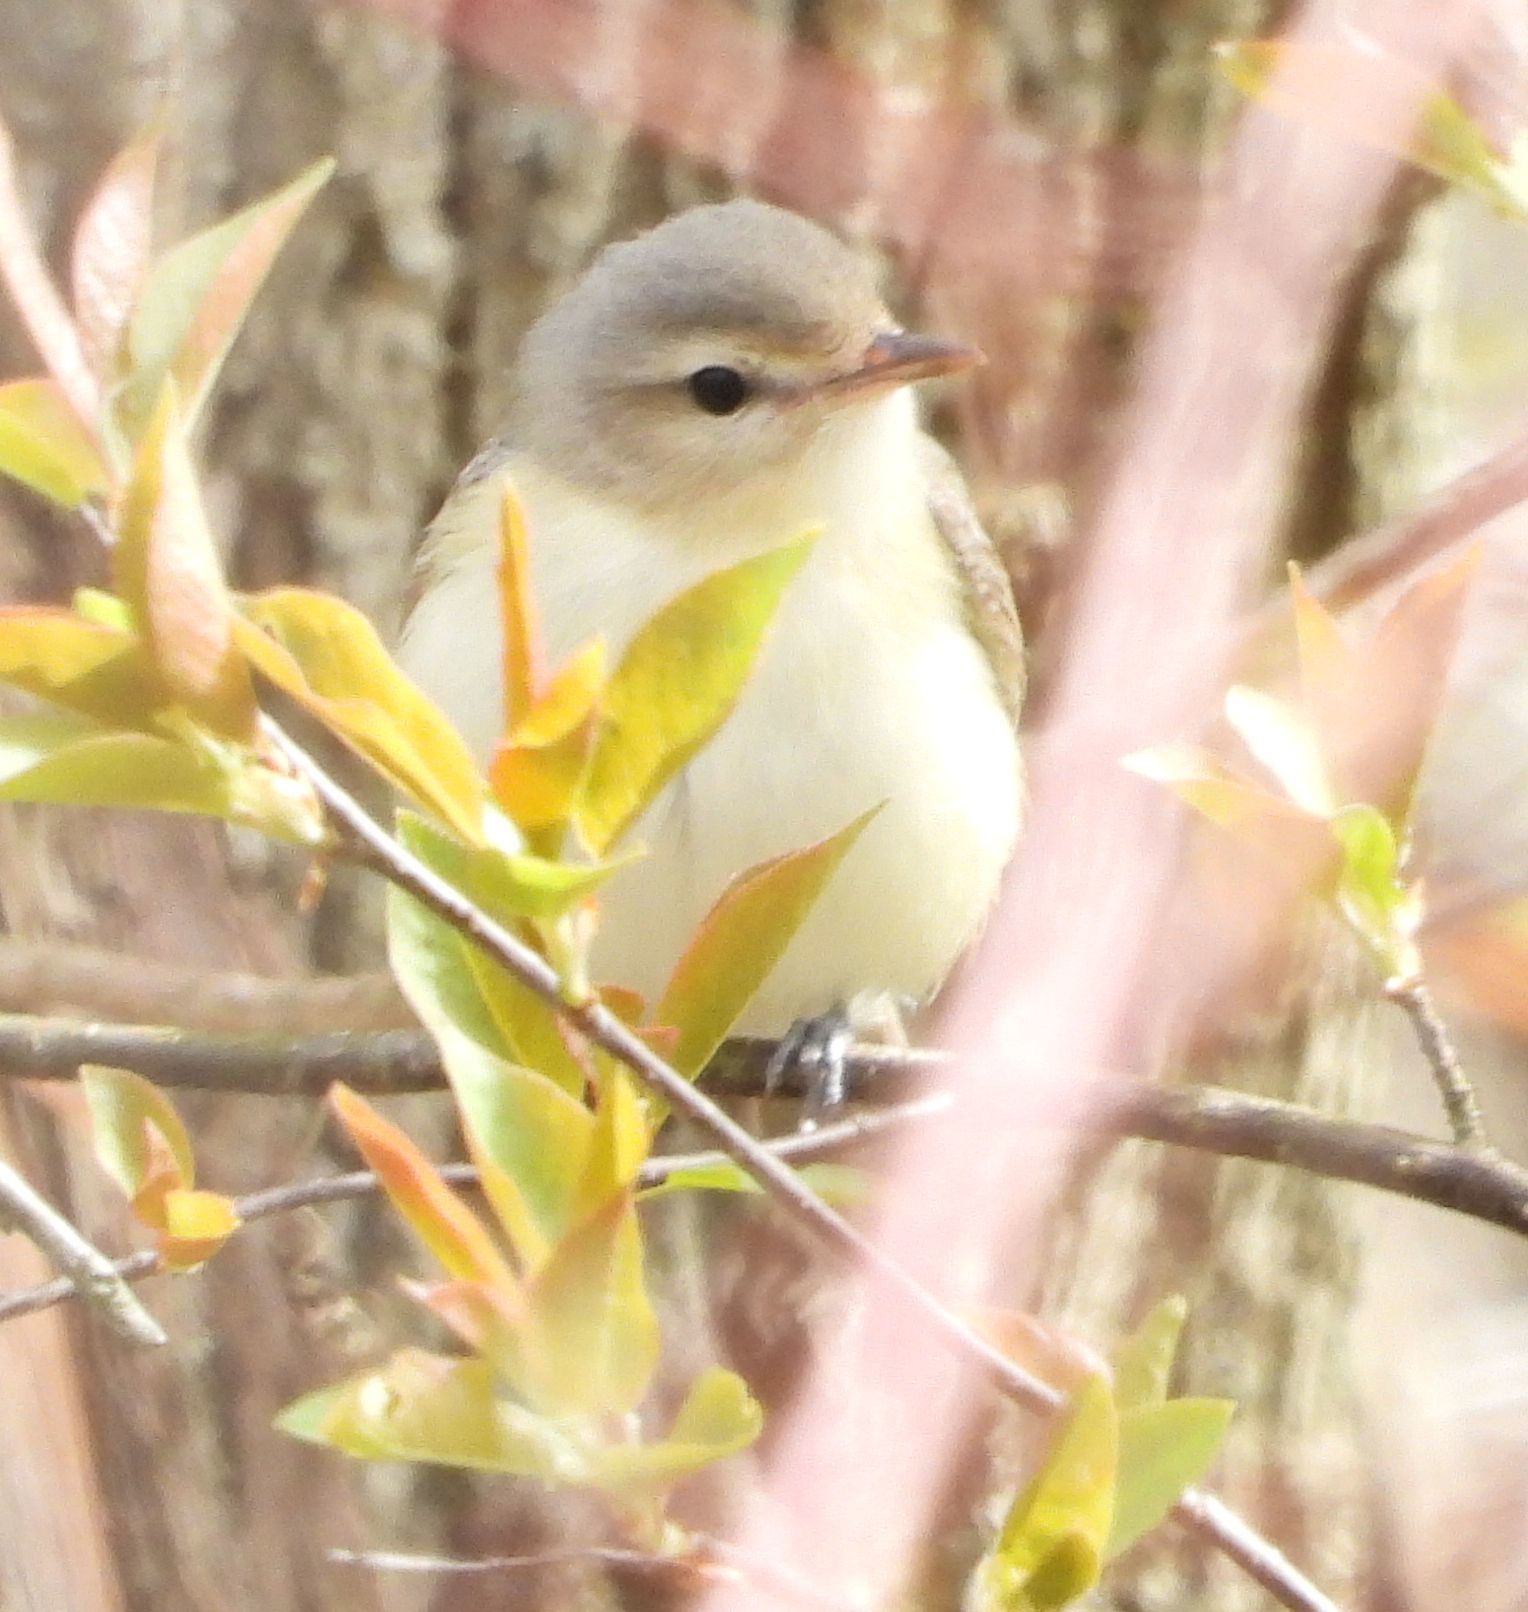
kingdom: Animalia
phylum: Chordata
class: Aves
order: Passeriformes
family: Vireonidae
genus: Vireo
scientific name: Vireo gilvus
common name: Warbling vireo
